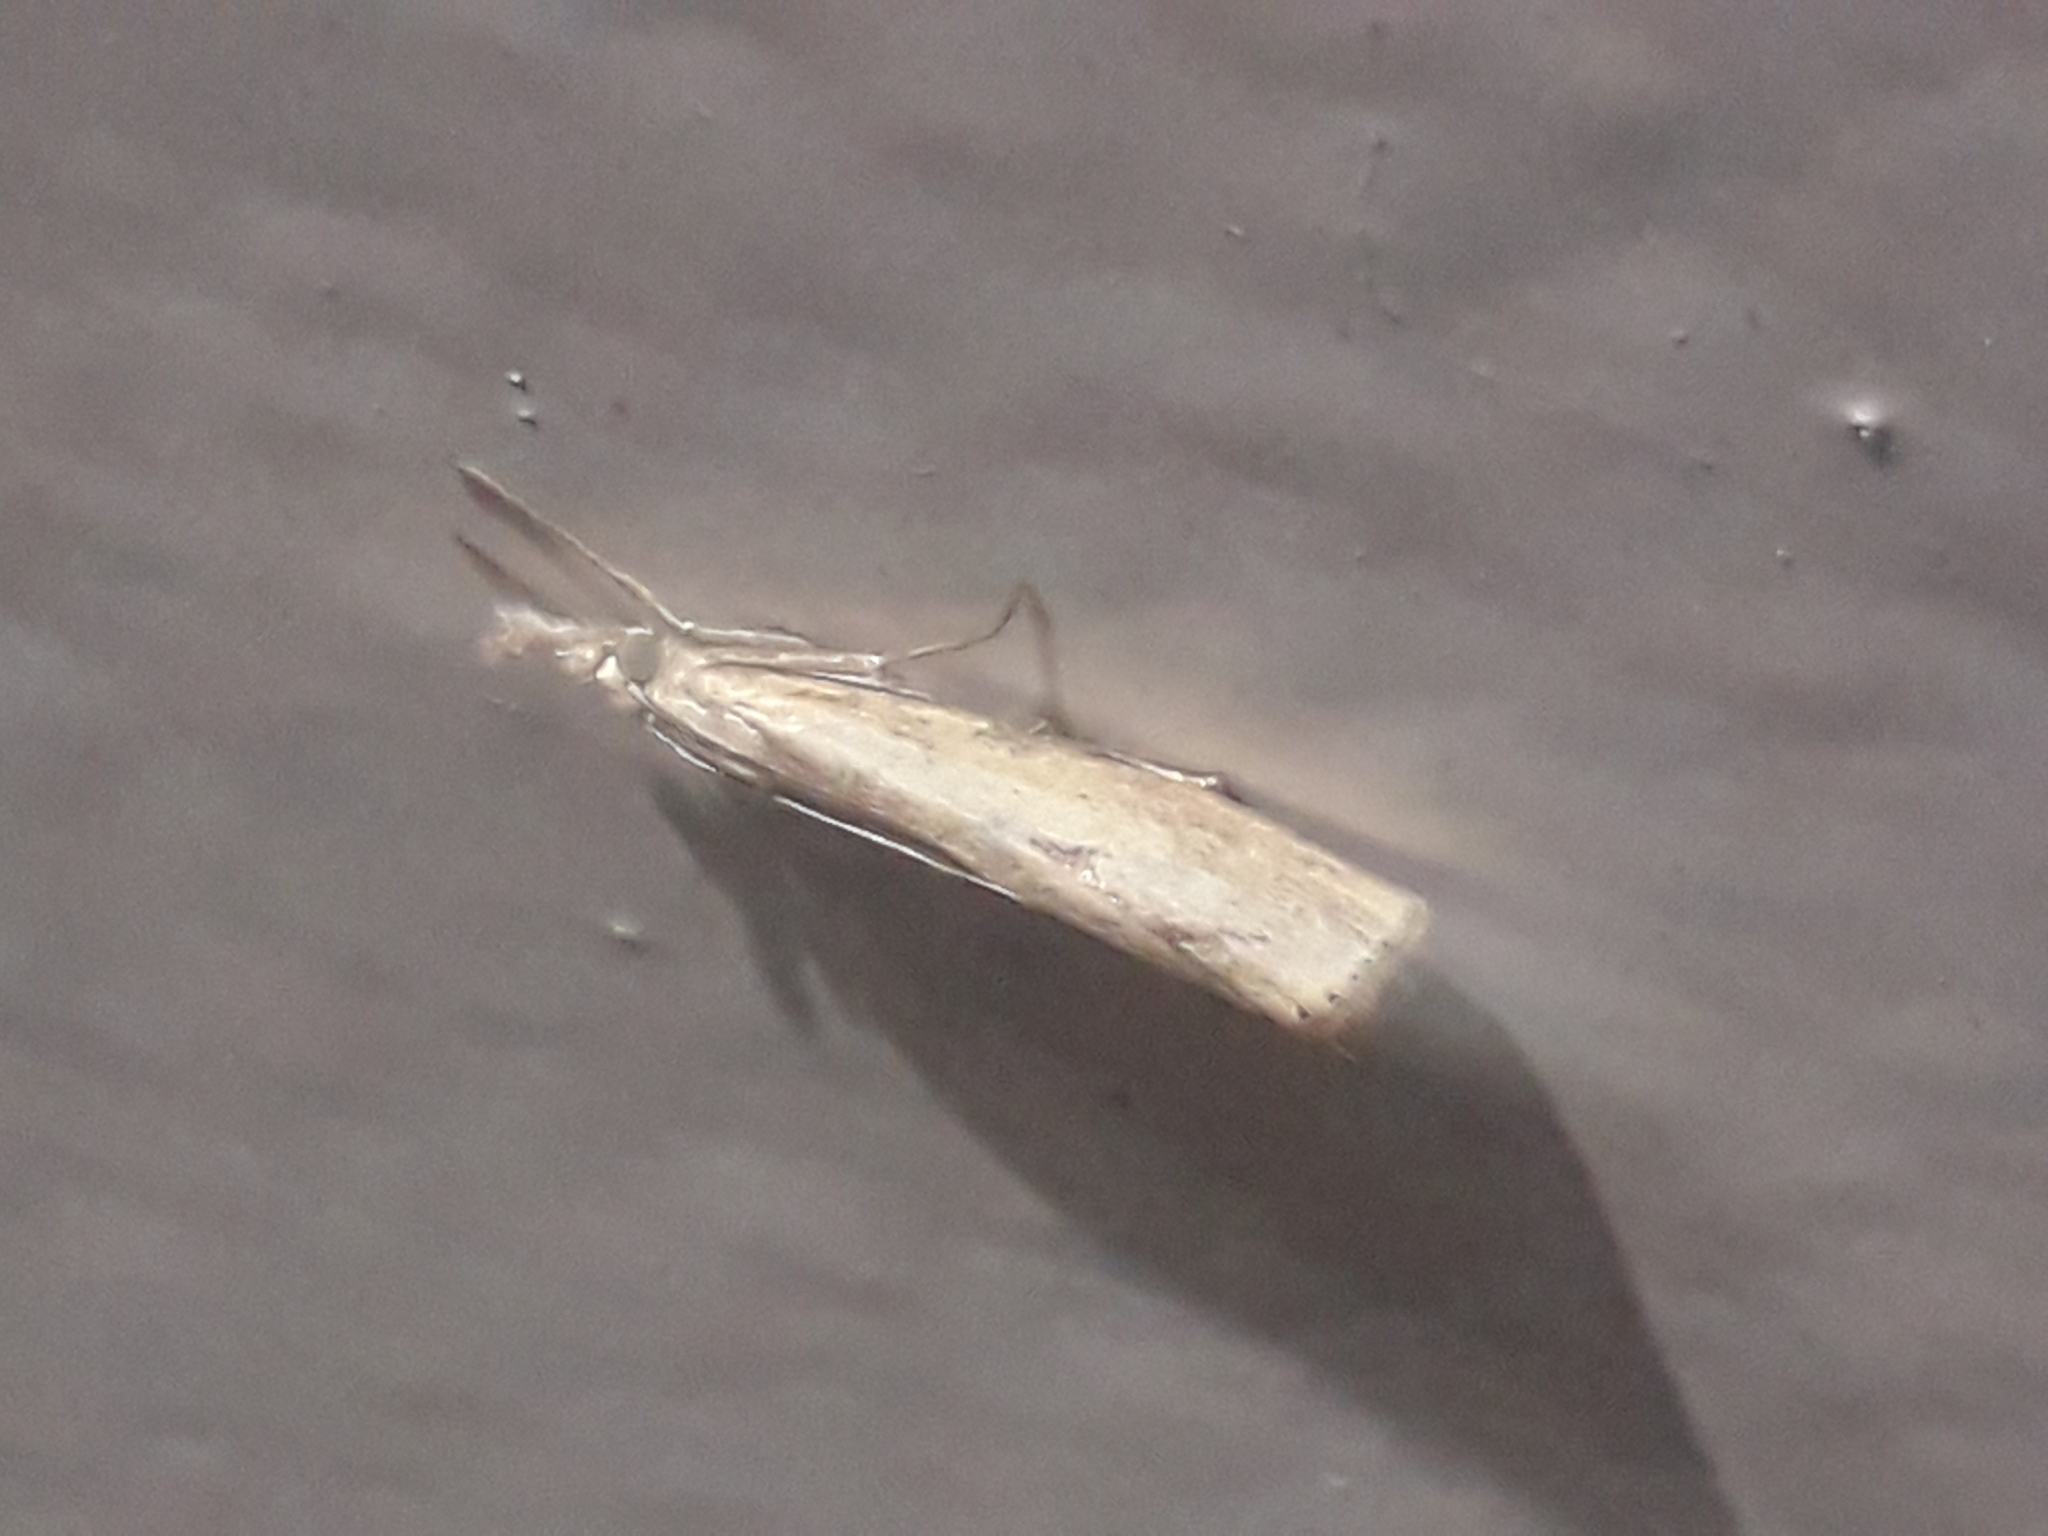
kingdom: Animalia
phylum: Arthropoda
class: Insecta
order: Lepidoptera
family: Crambidae
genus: Agriphila
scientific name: Agriphila inquinatella
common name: Barred grass-veneer
